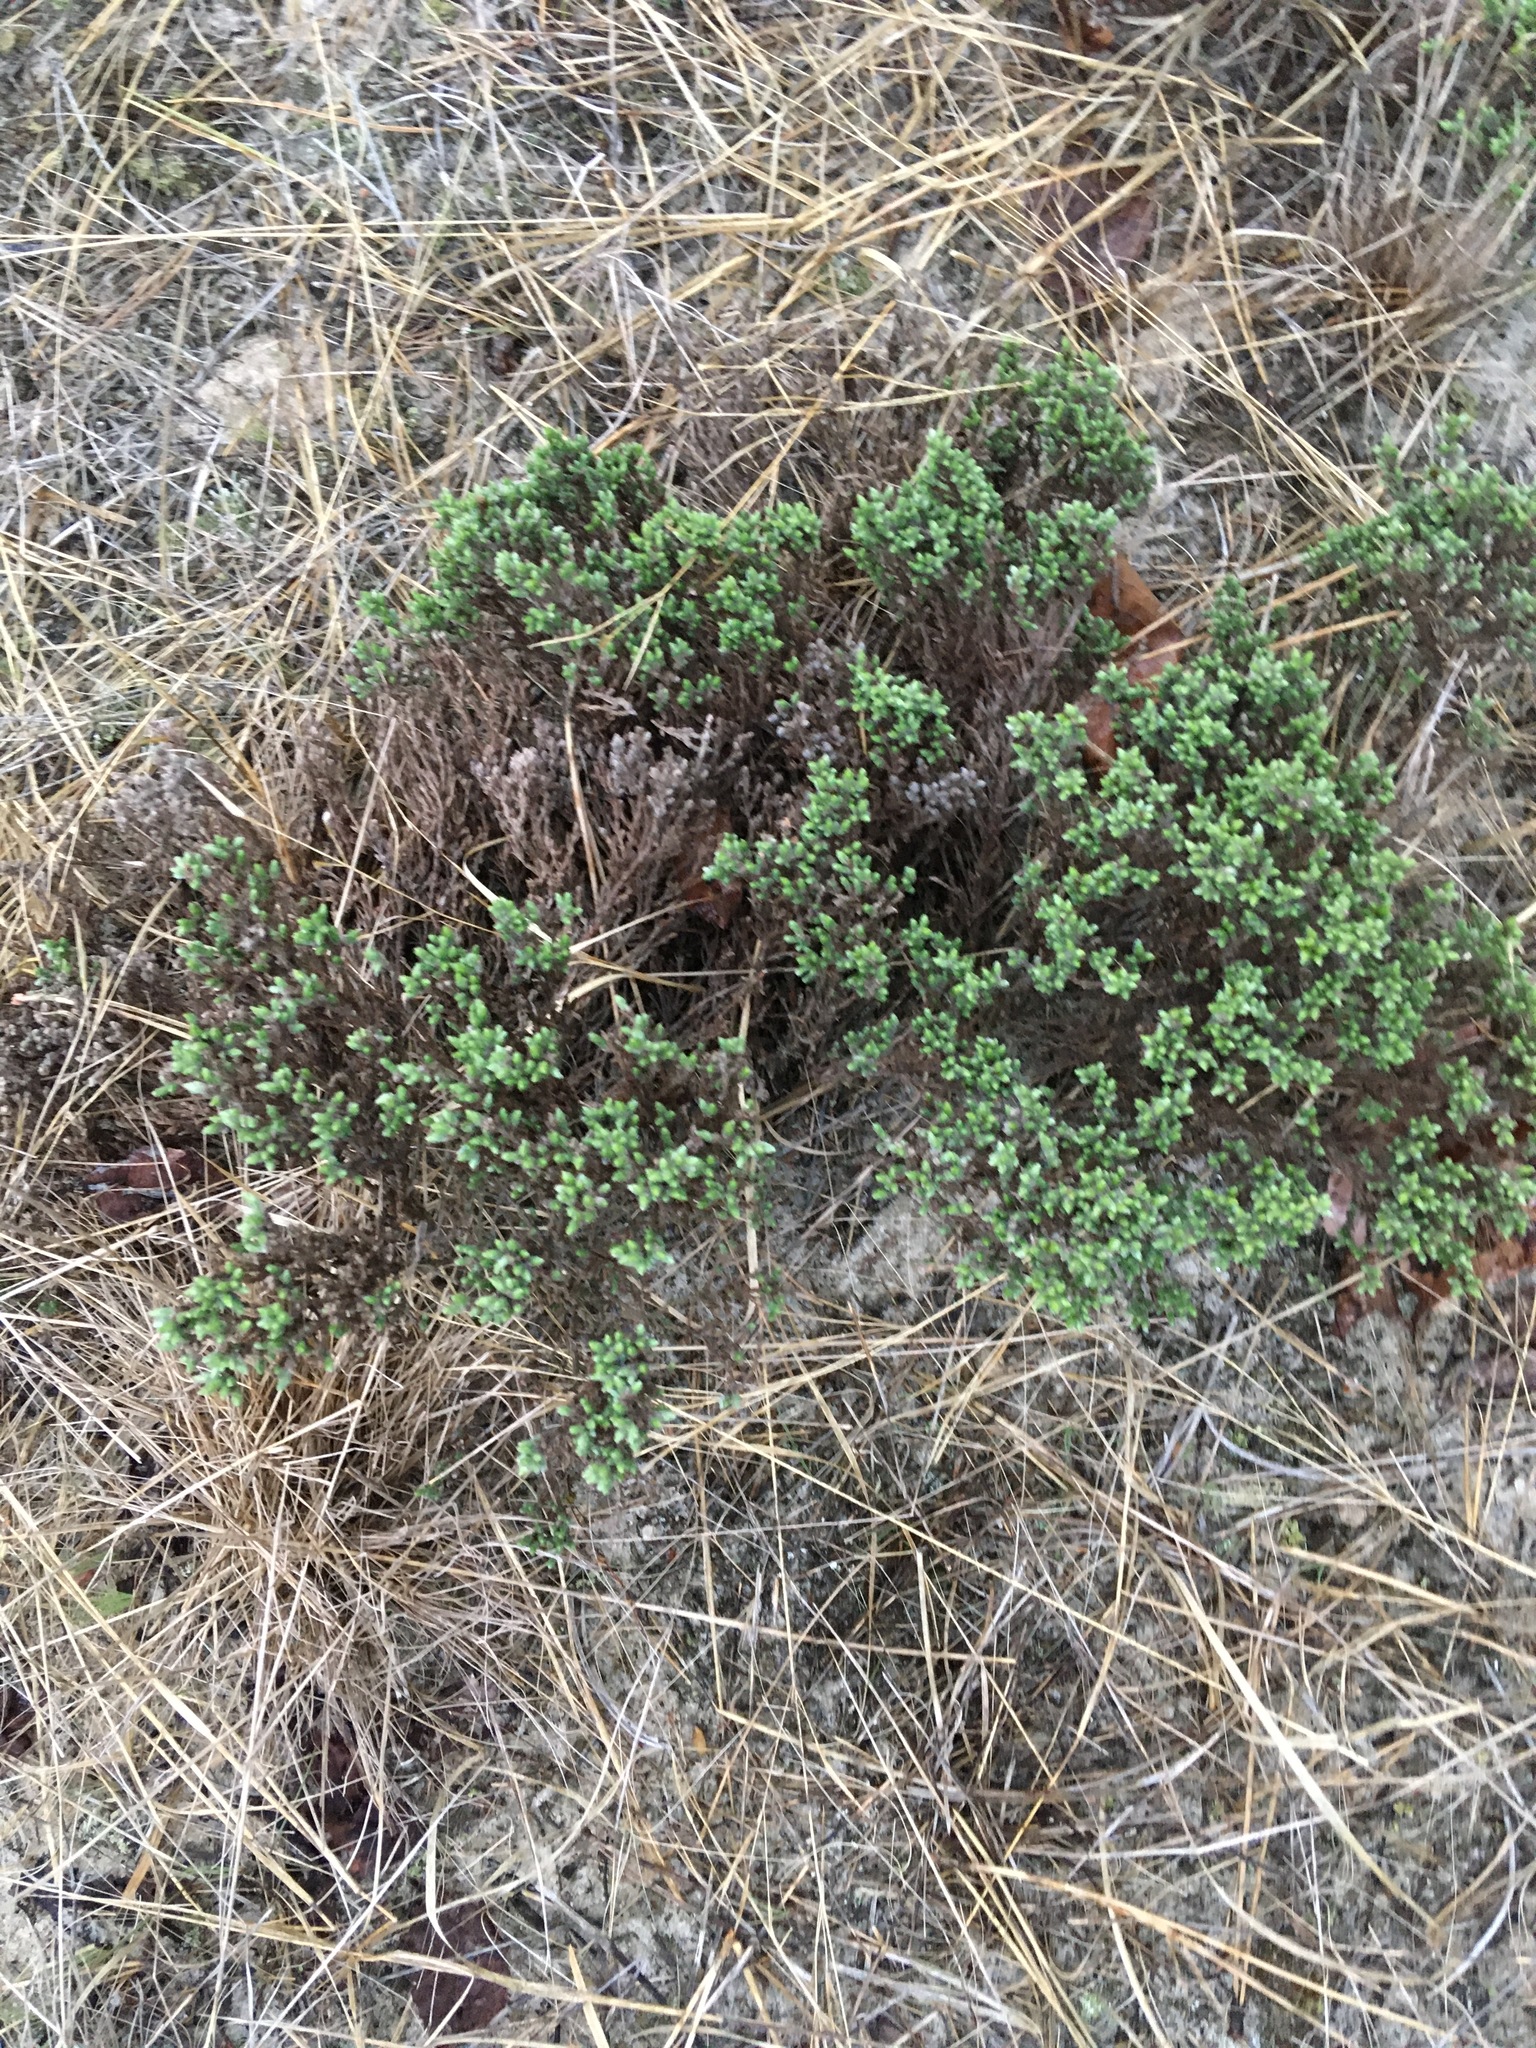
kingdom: Plantae
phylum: Tracheophyta
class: Magnoliopsida
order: Malvales
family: Cistaceae
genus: Hudsonia
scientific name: Hudsonia tomentosa
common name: Beach-heath
